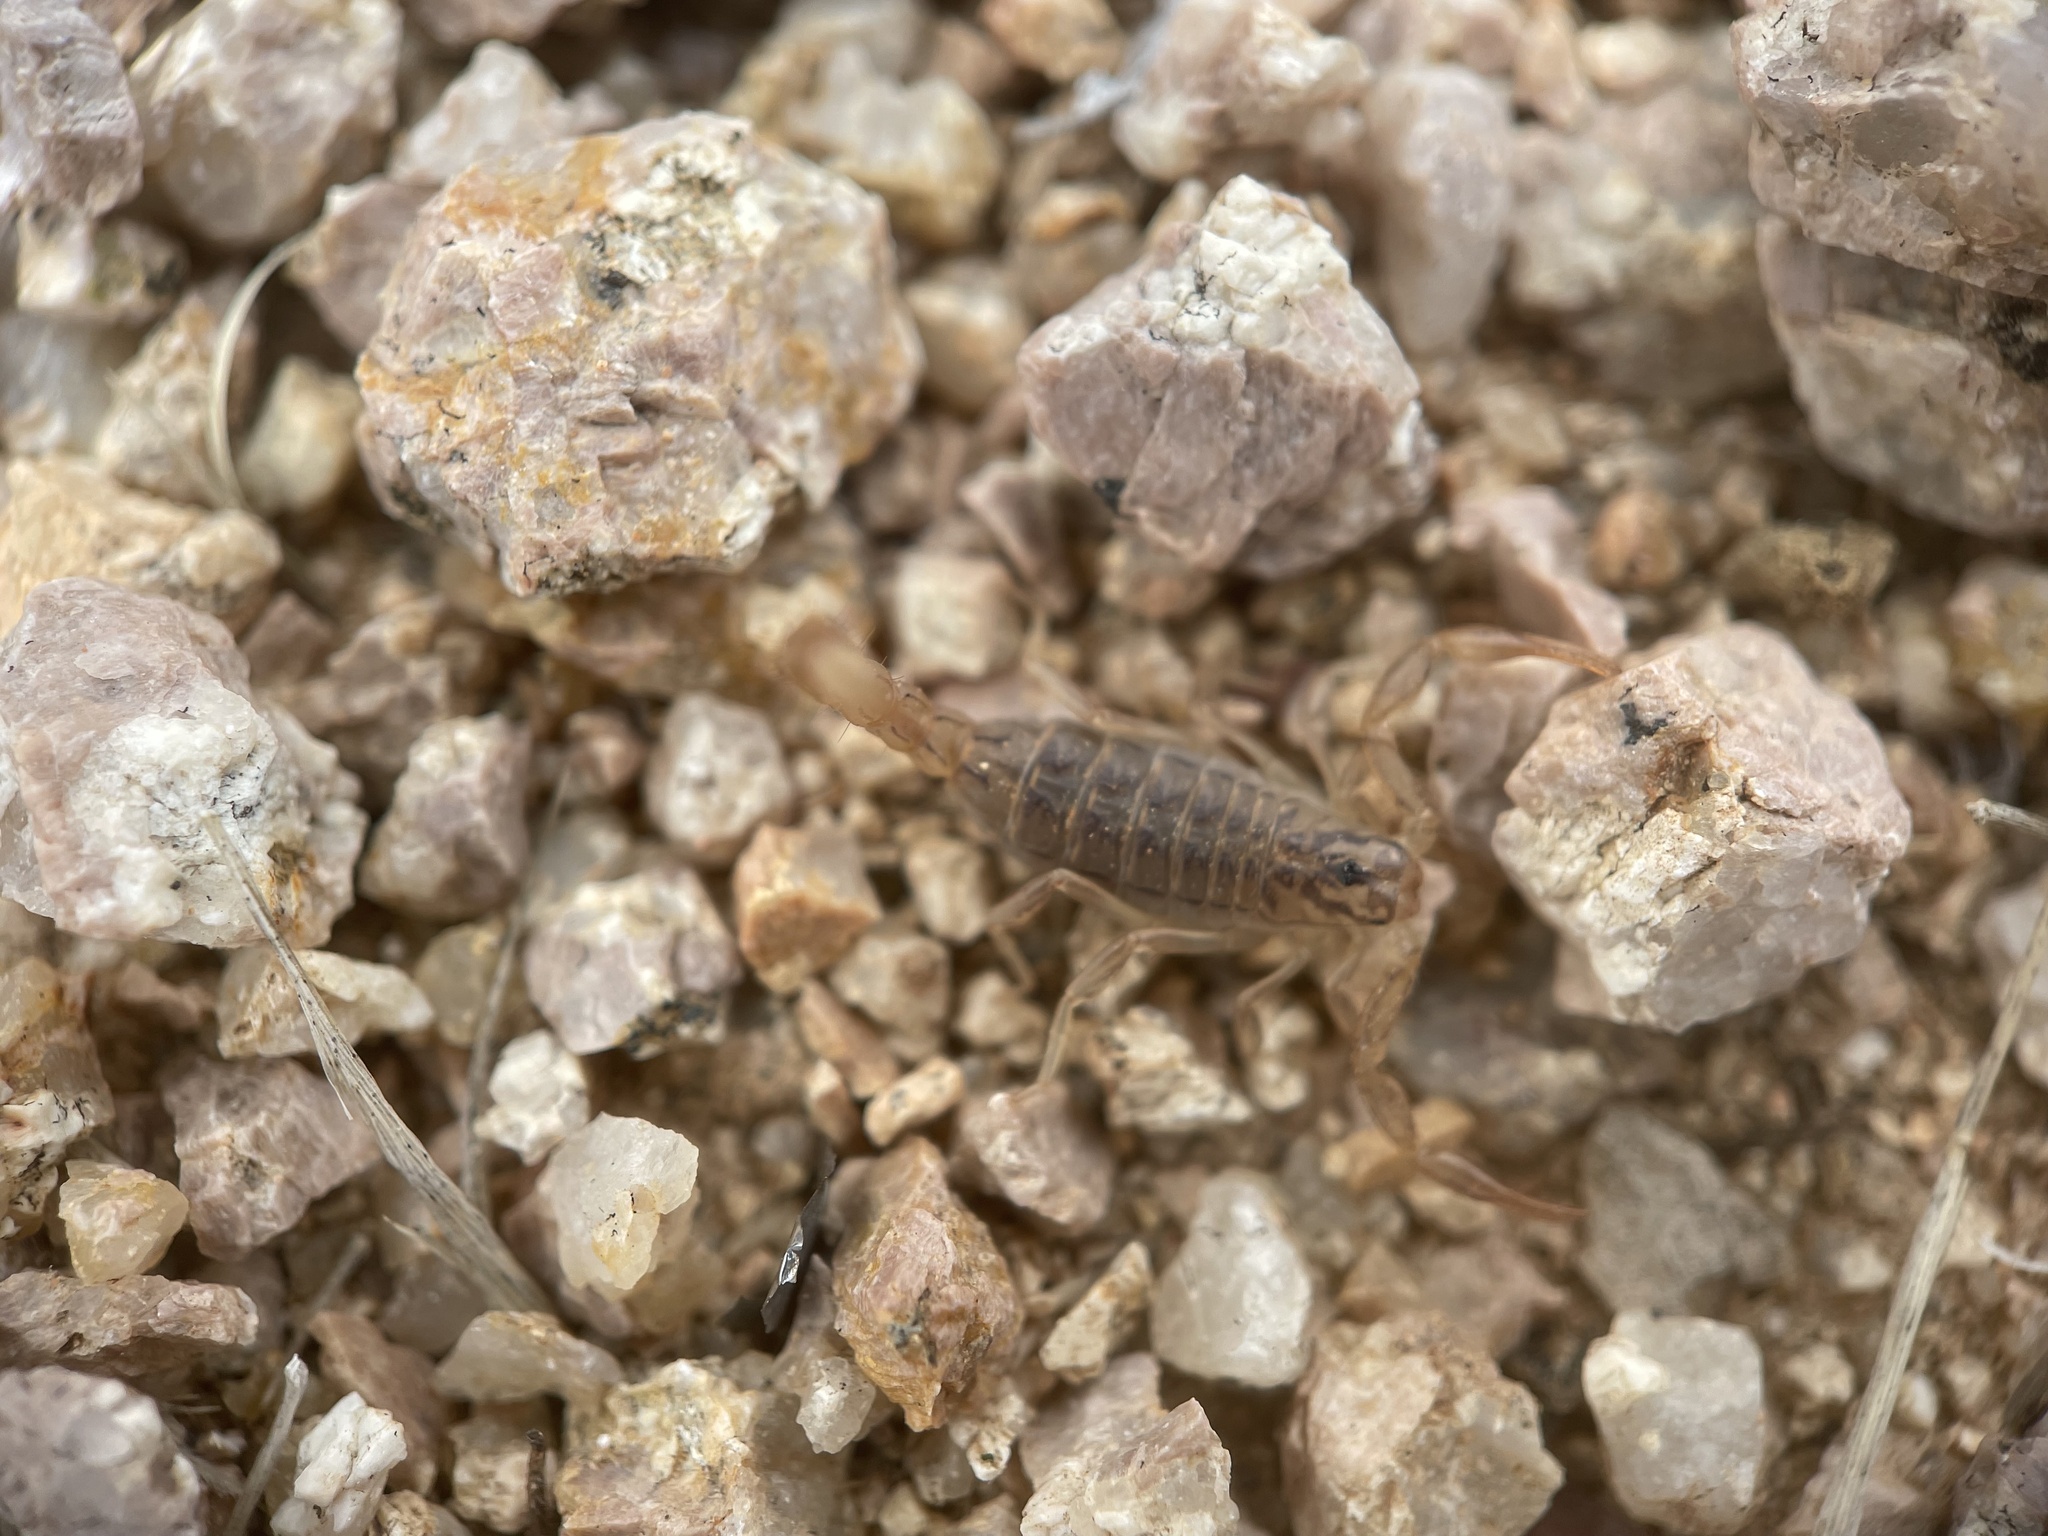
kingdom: Animalia
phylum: Arthropoda
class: Arachnida
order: Scorpiones
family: Vaejovidae
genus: Paravaejovis
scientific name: Paravaejovis spinigerus
